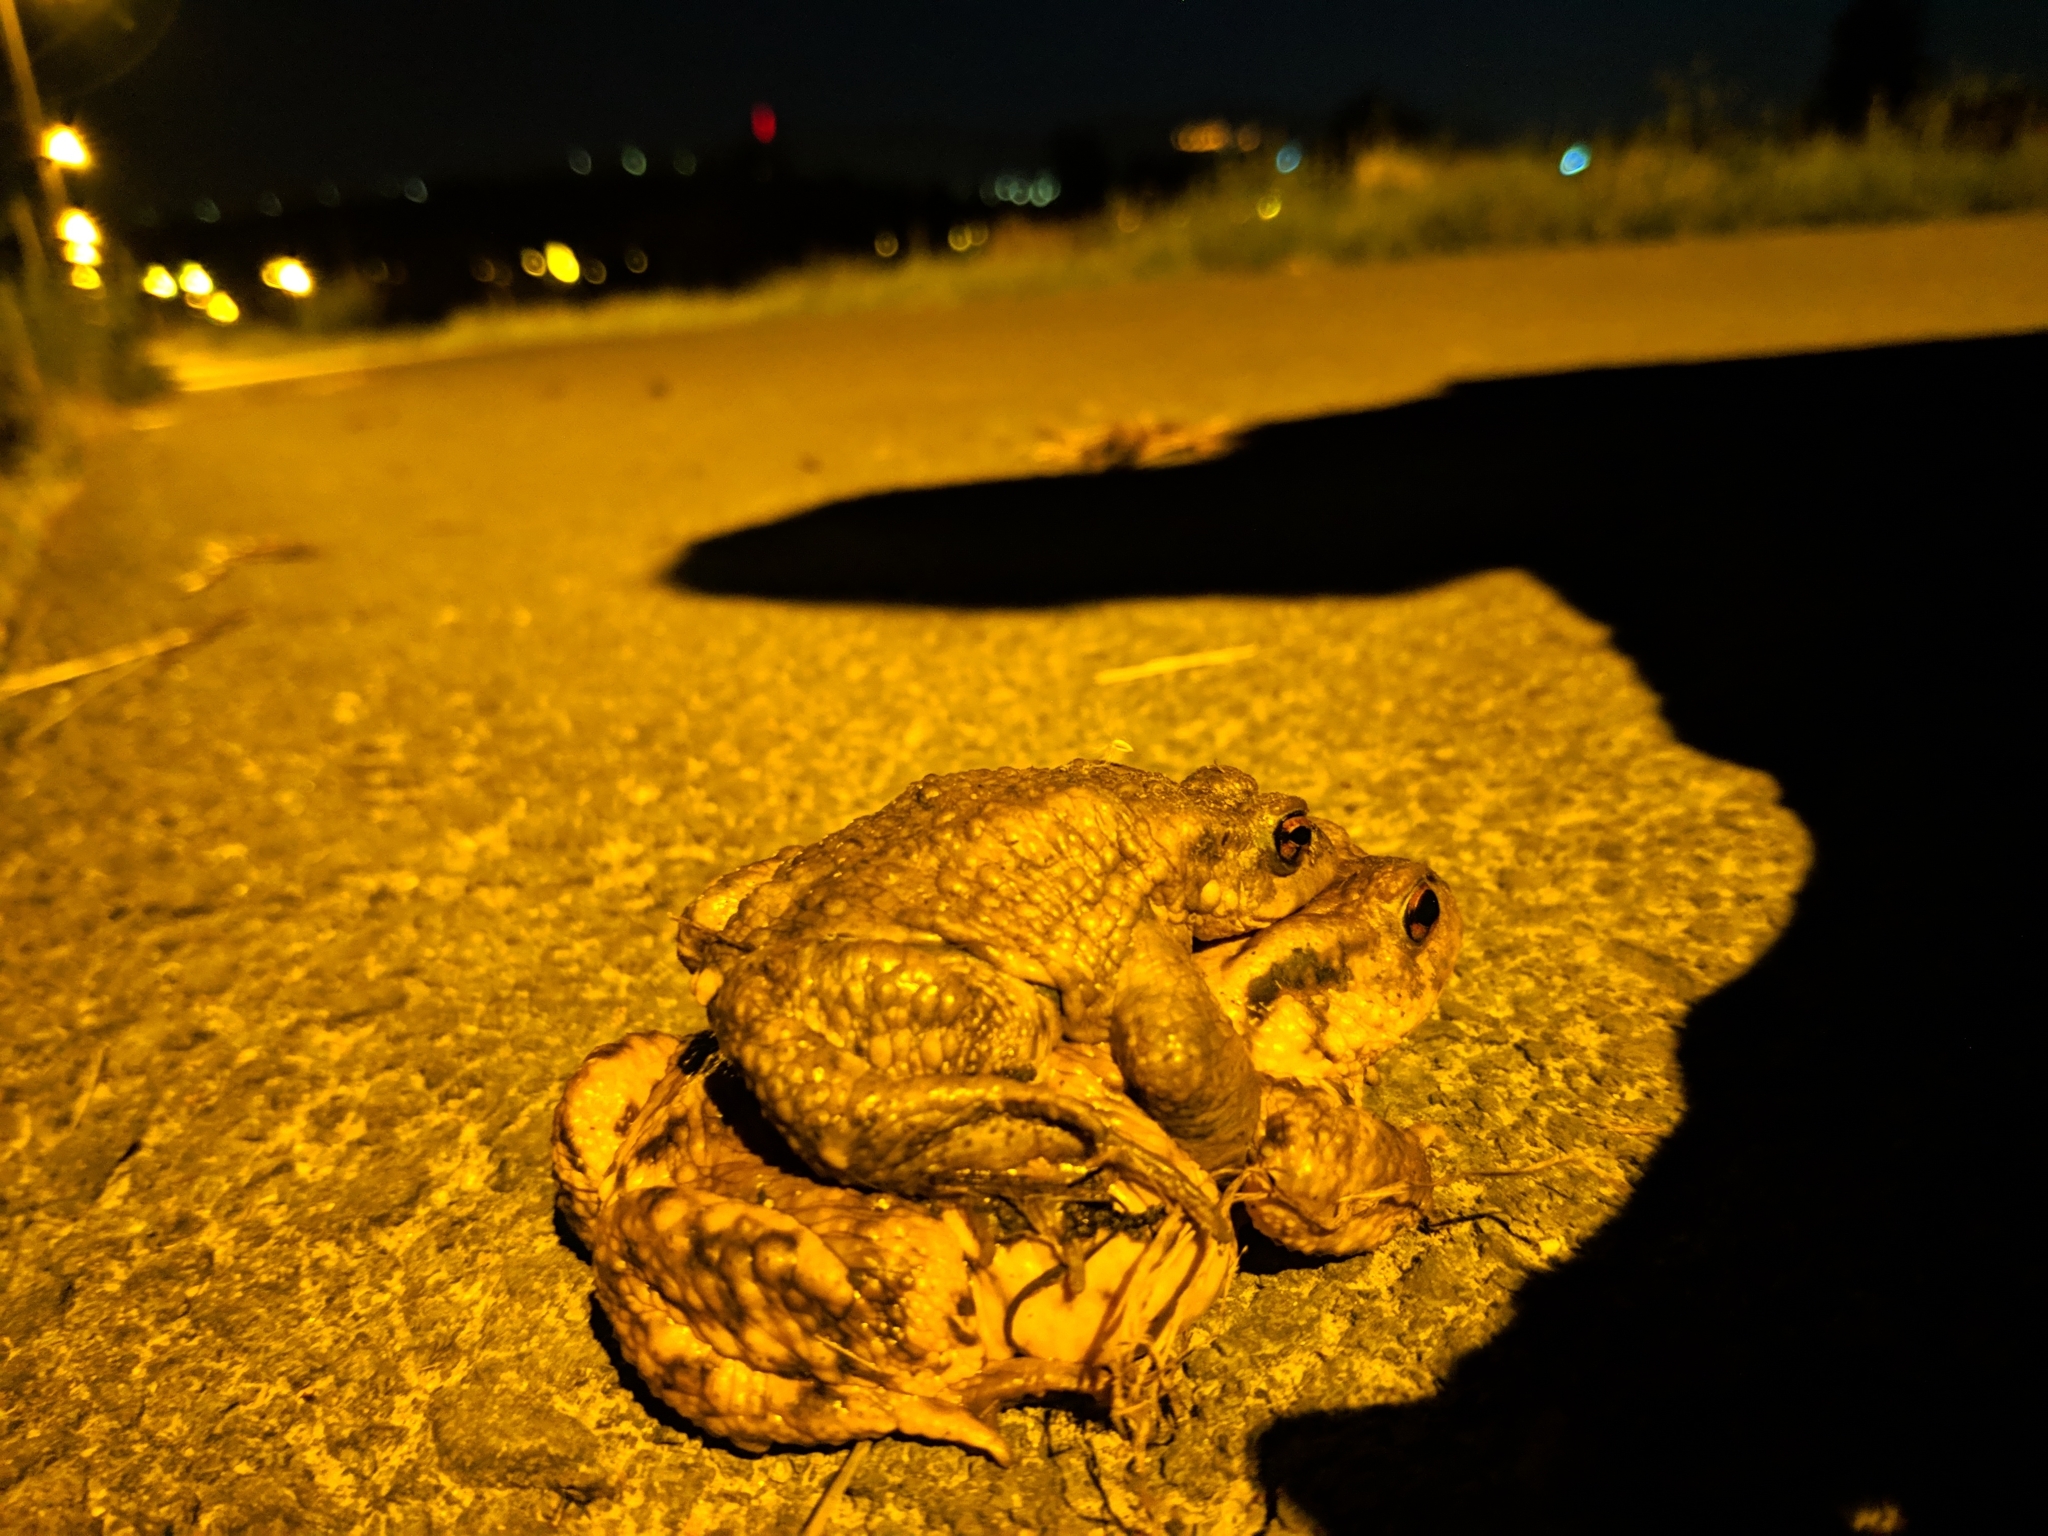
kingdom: Animalia
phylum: Chordata
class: Amphibia
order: Anura
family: Bufonidae
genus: Bufo
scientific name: Bufo spinosus
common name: Western common toad
